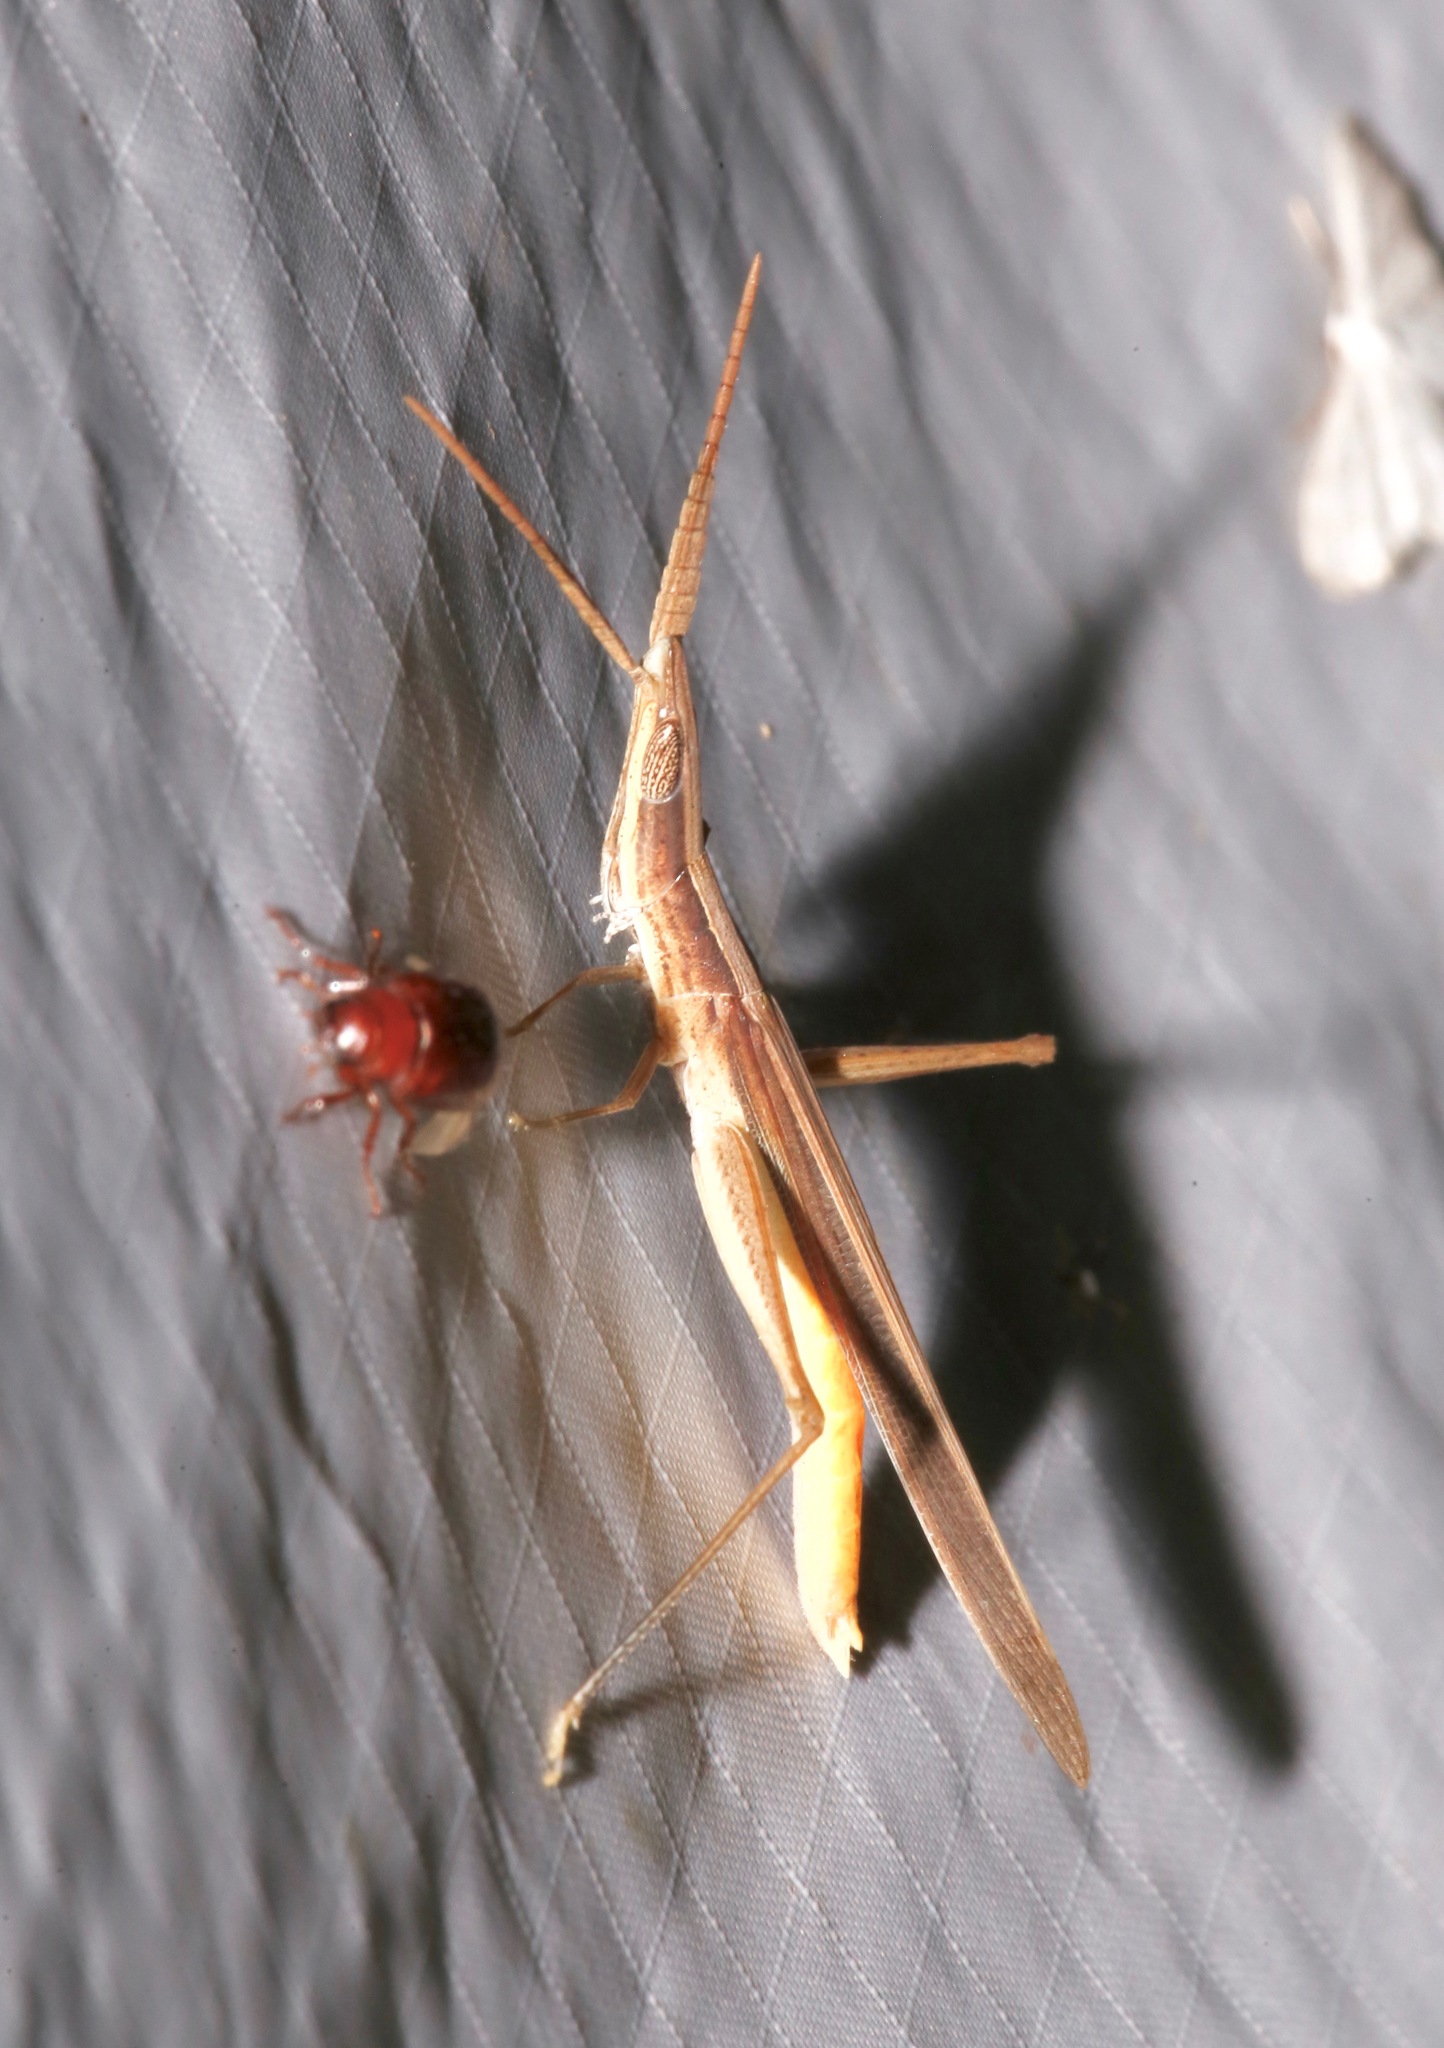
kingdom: Animalia
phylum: Arthropoda
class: Insecta
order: Orthoptera
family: Acrididae
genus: Achurum
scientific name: Achurum sumichrasti
